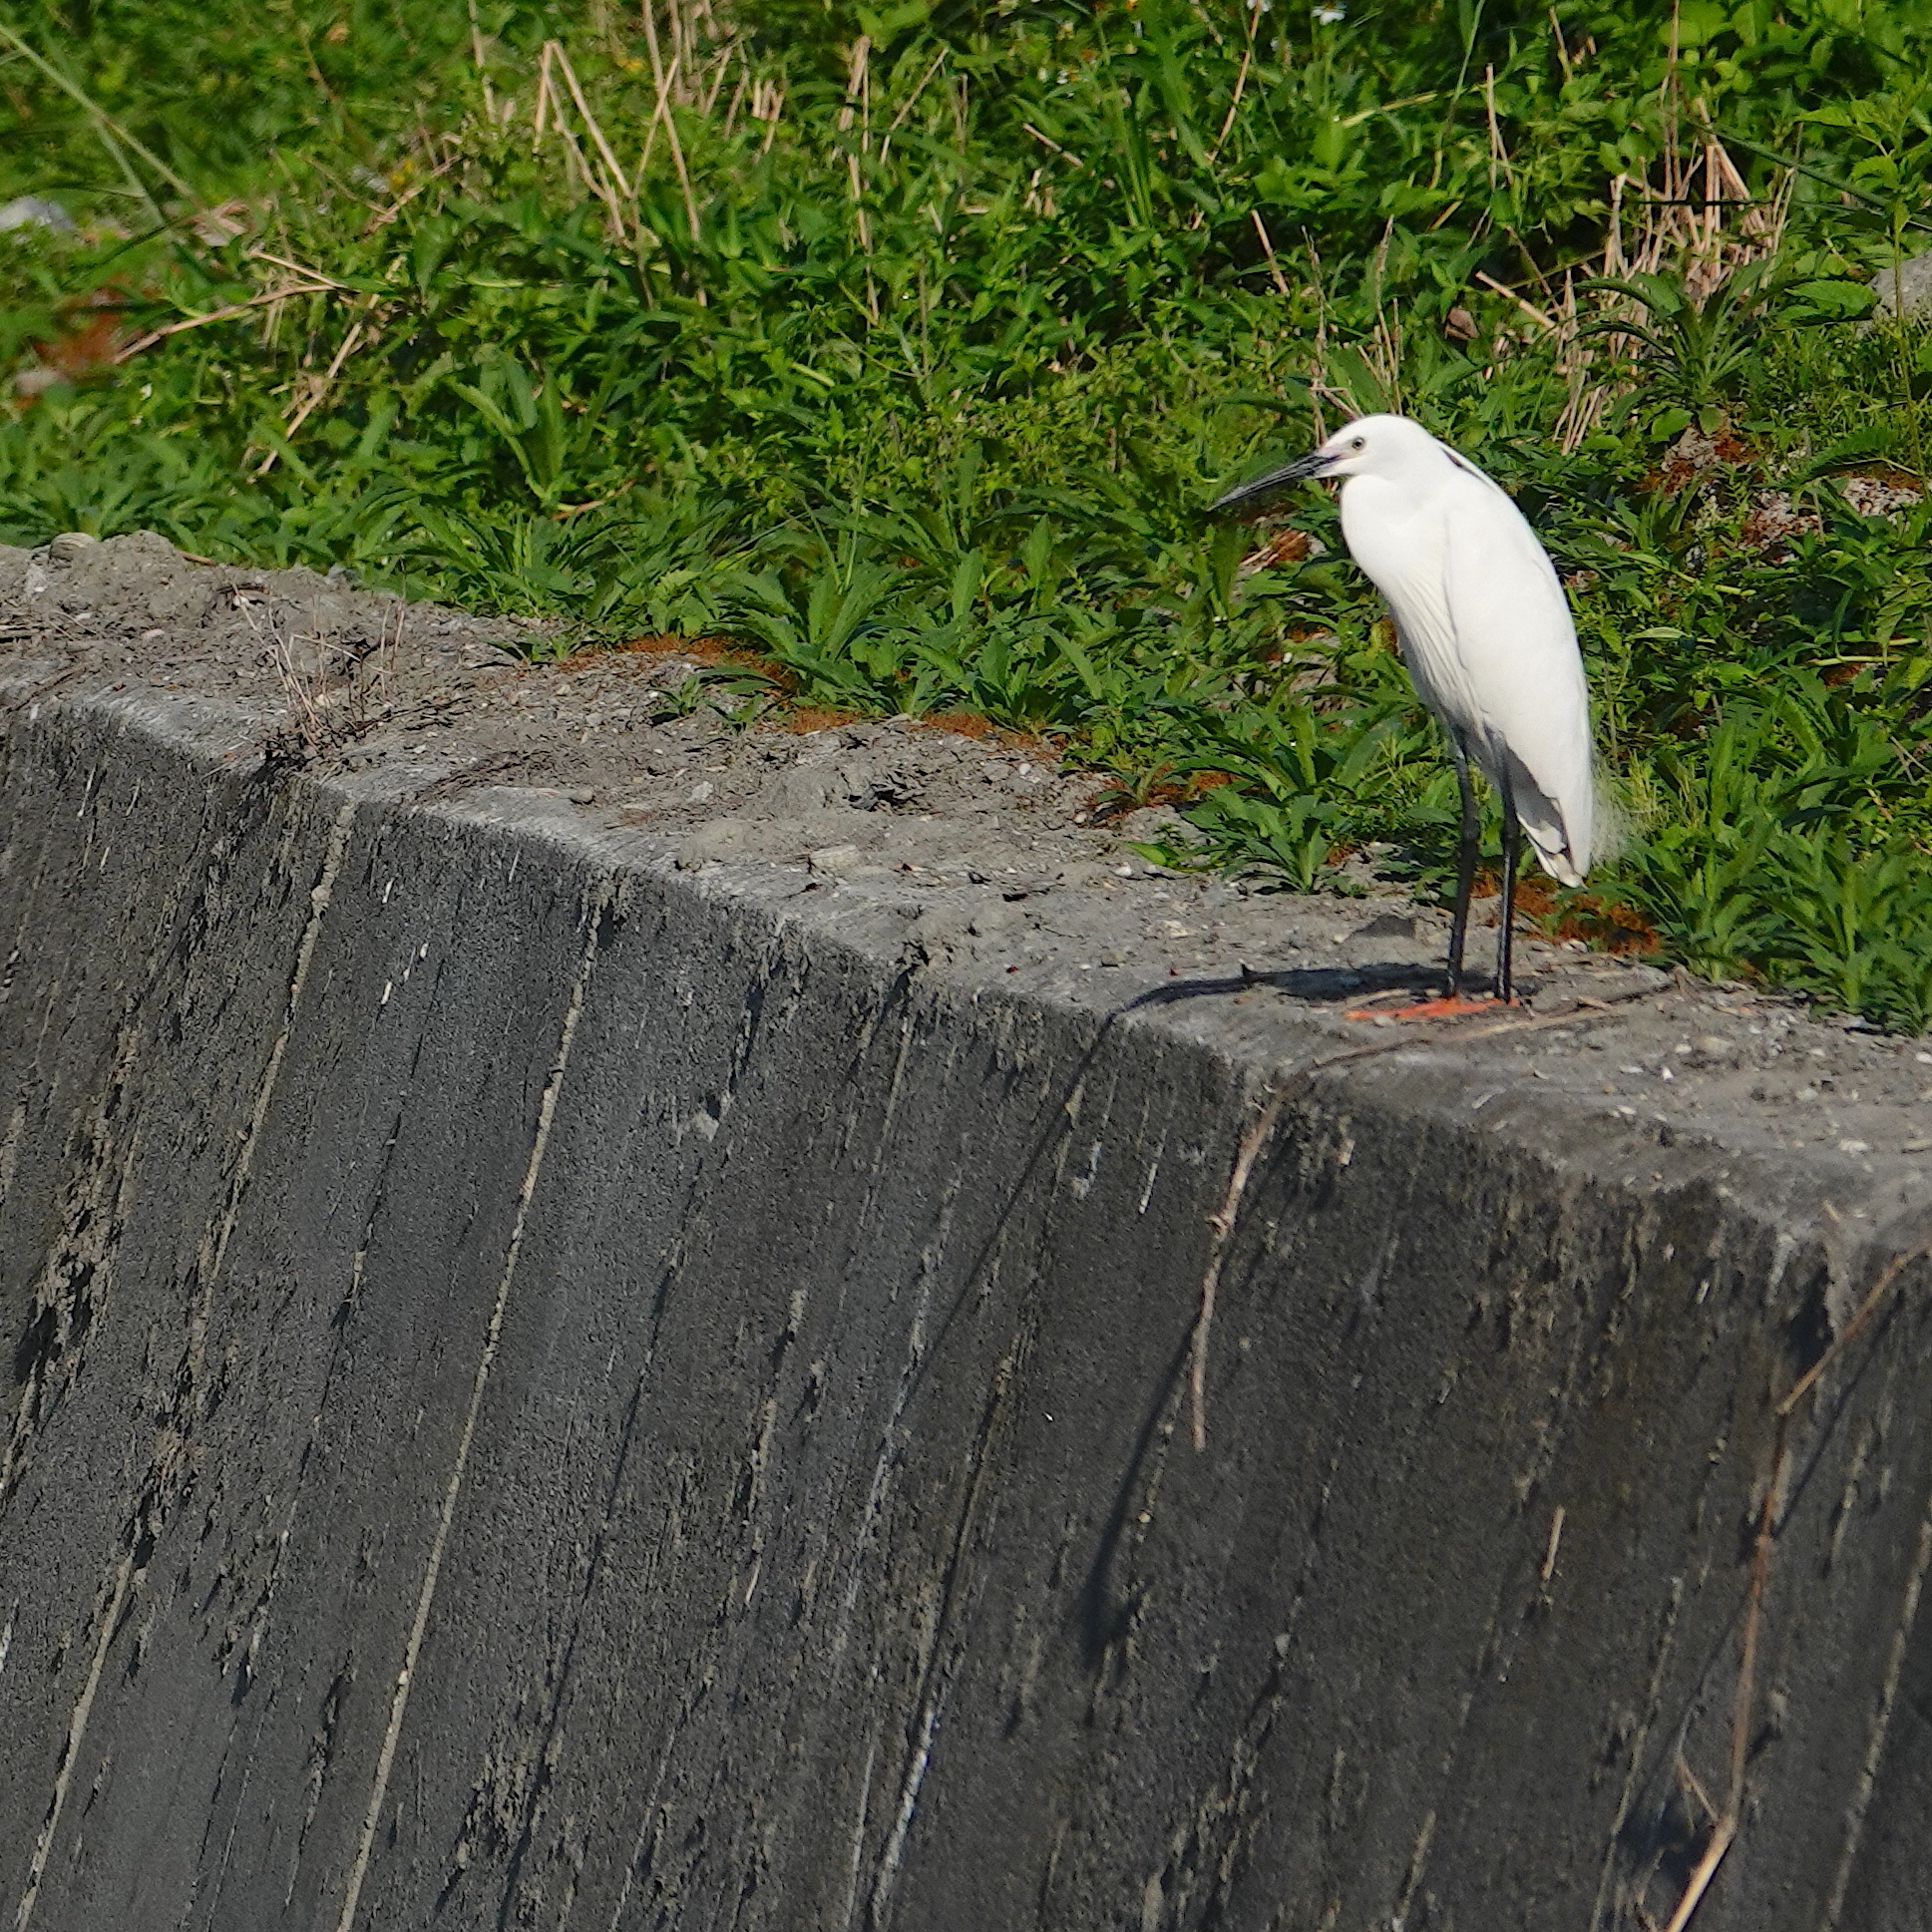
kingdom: Animalia
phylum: Chordata
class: Aves
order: Pelecaniformes
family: Ardeidae
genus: Egretta
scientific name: Egretta garzetta
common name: Little egret
